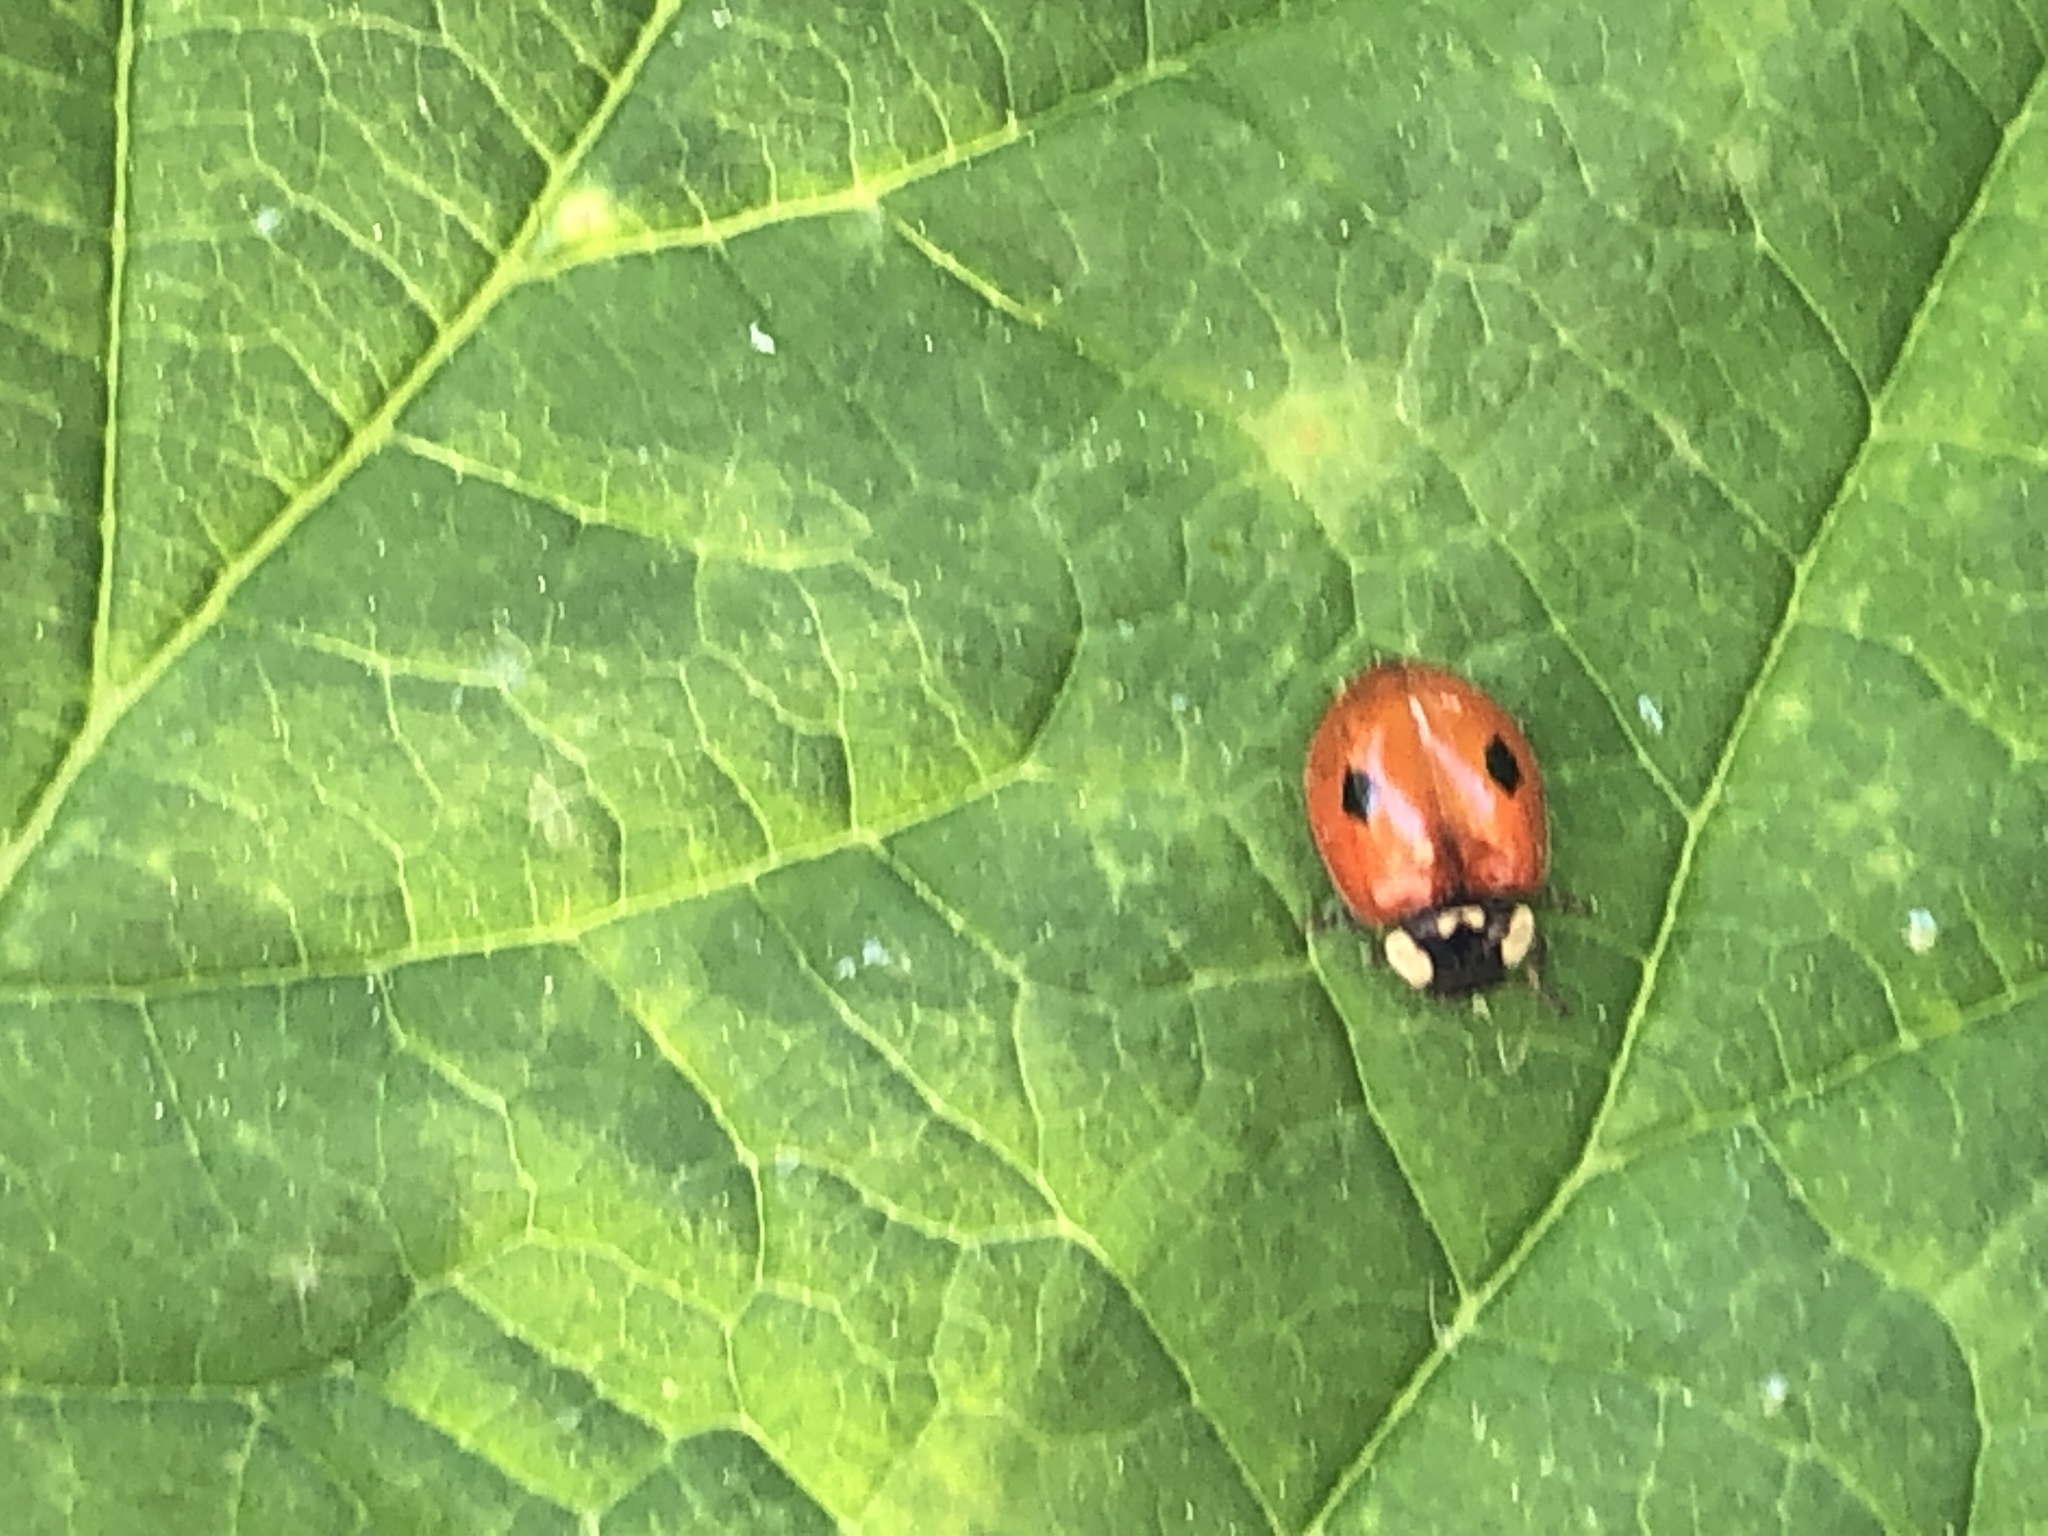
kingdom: Animalia
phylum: Arthropoda
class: Insecta
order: Coleoptera
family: Coccinellidae
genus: Adalia
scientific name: Adalia bipunctata
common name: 2-spot ladybird
